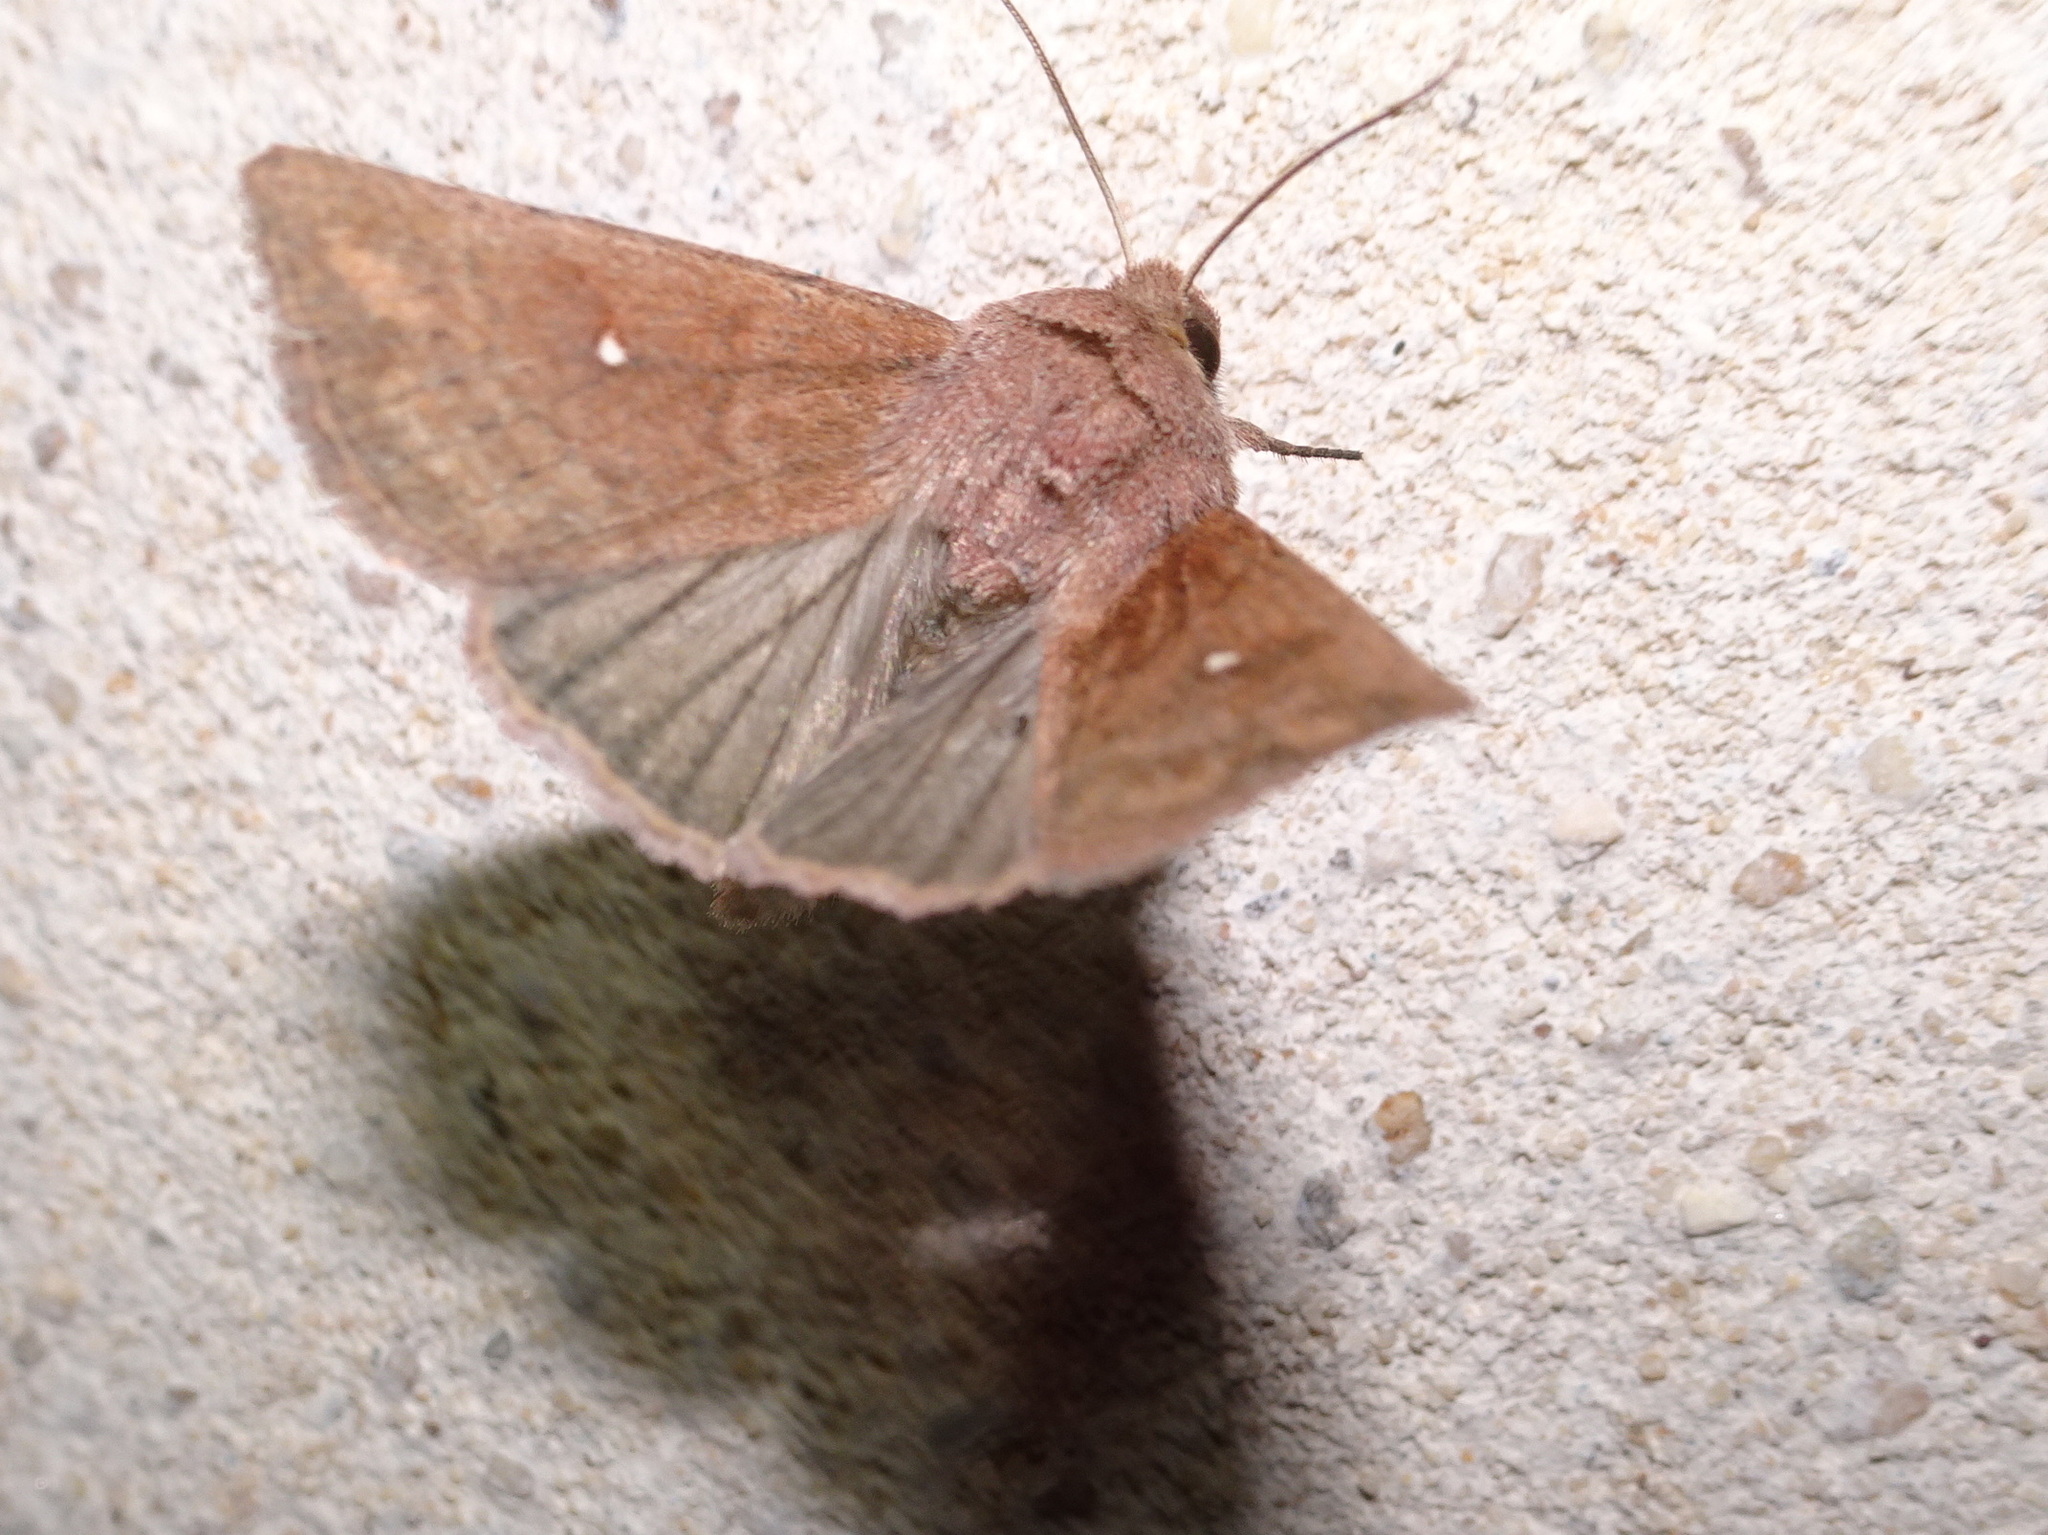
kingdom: Animalia
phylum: Arthropoda
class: Insecta
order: Lepidoptera
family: Noctuidae
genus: Mythimna
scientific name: Mythimna albipuncta
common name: White-point
